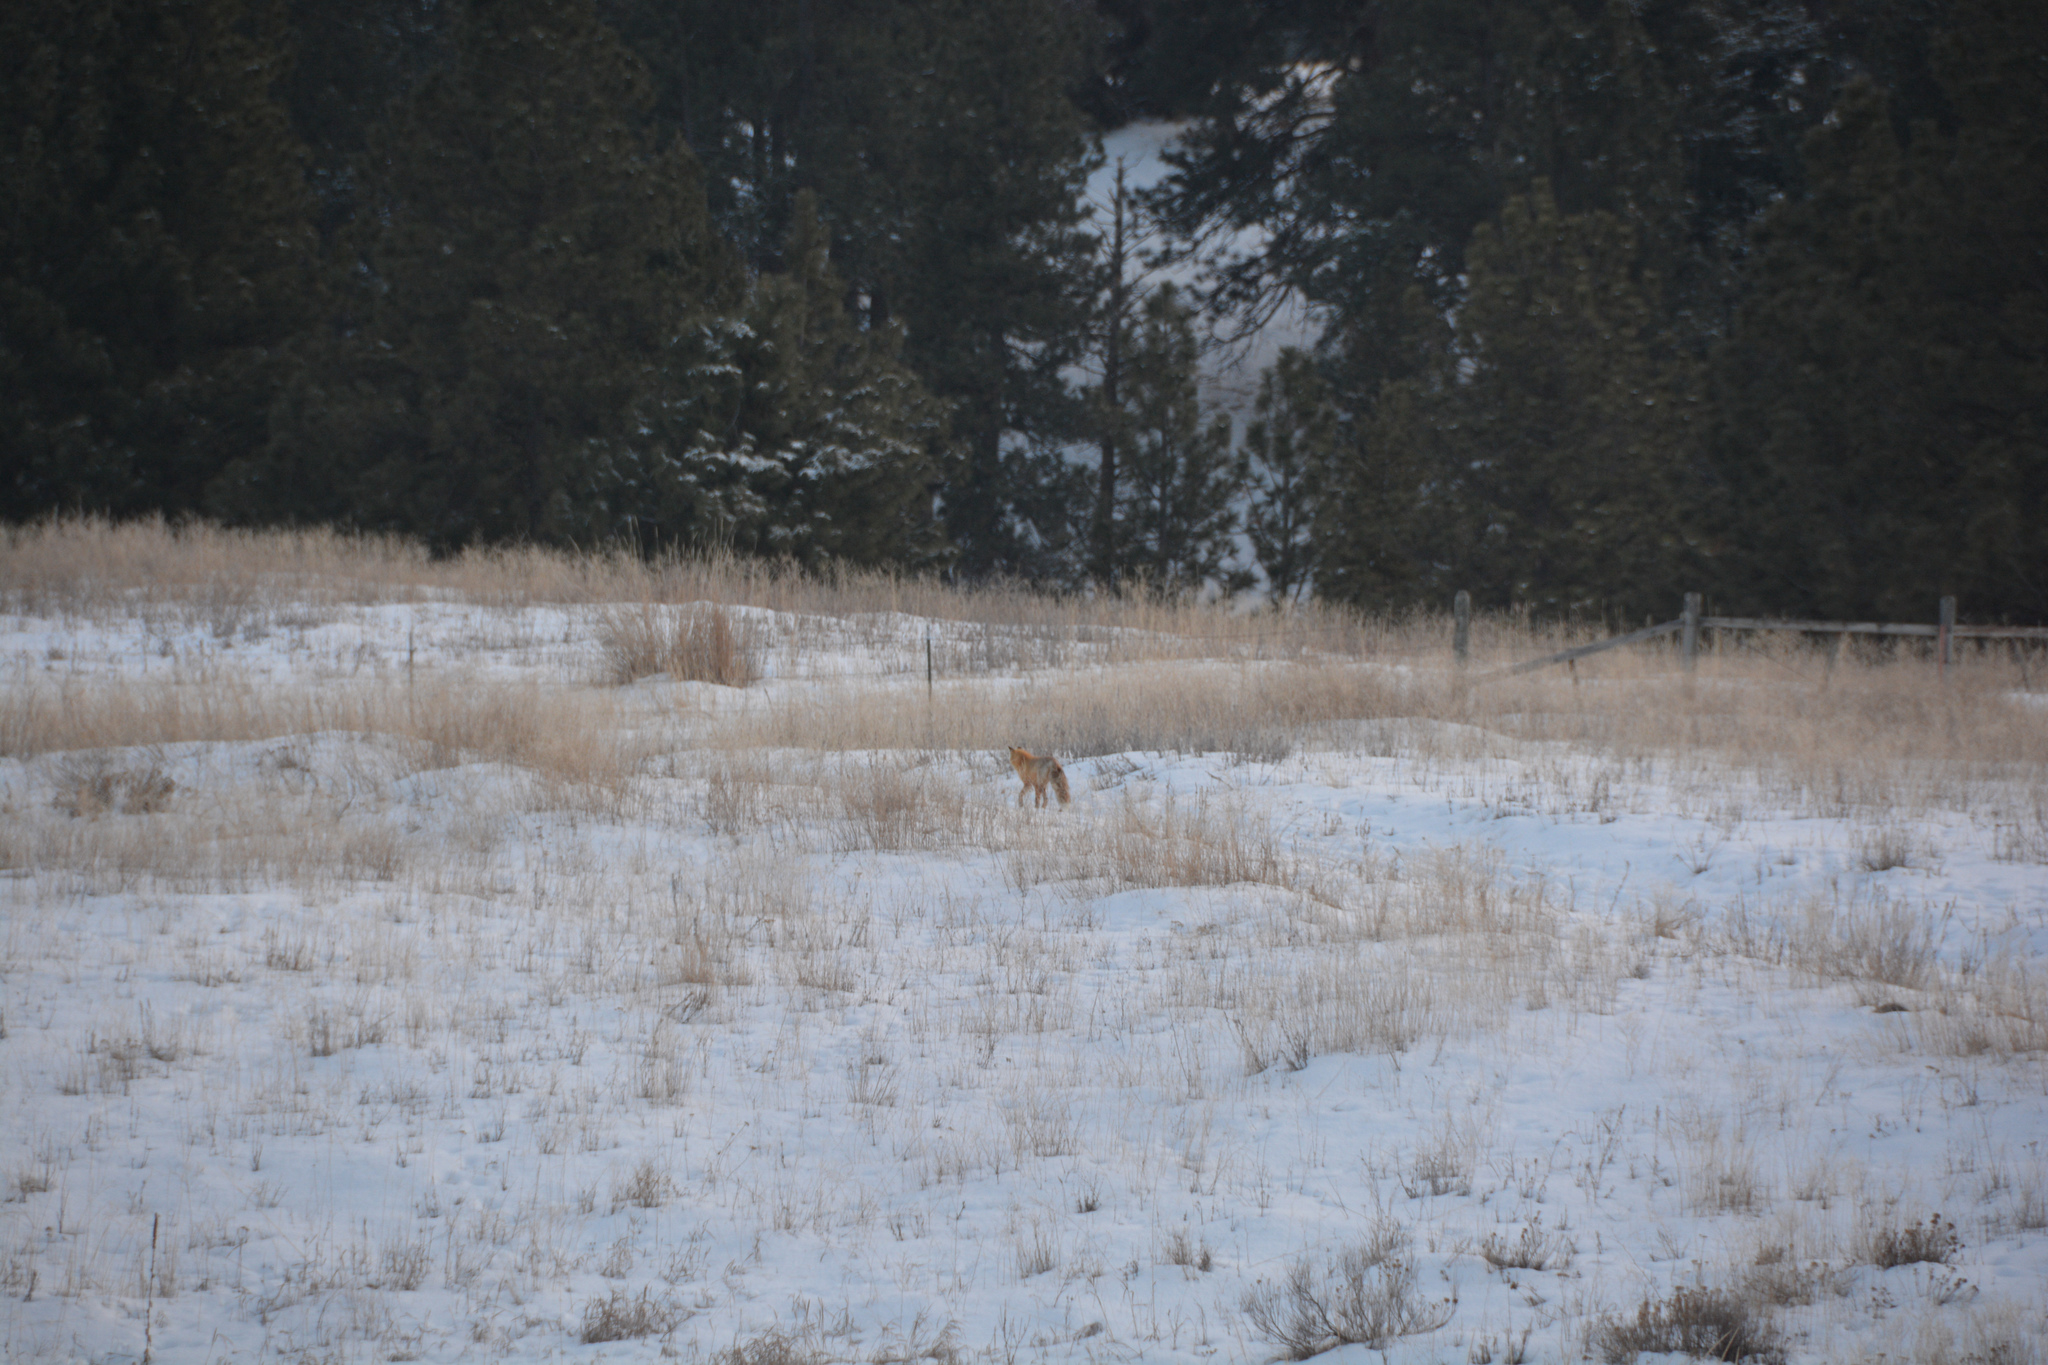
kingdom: Animalia
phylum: Chordata
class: Mammalia
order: Carnivora
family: Canidae
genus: Vulpes
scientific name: Vulpes vulpes
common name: Red fox
